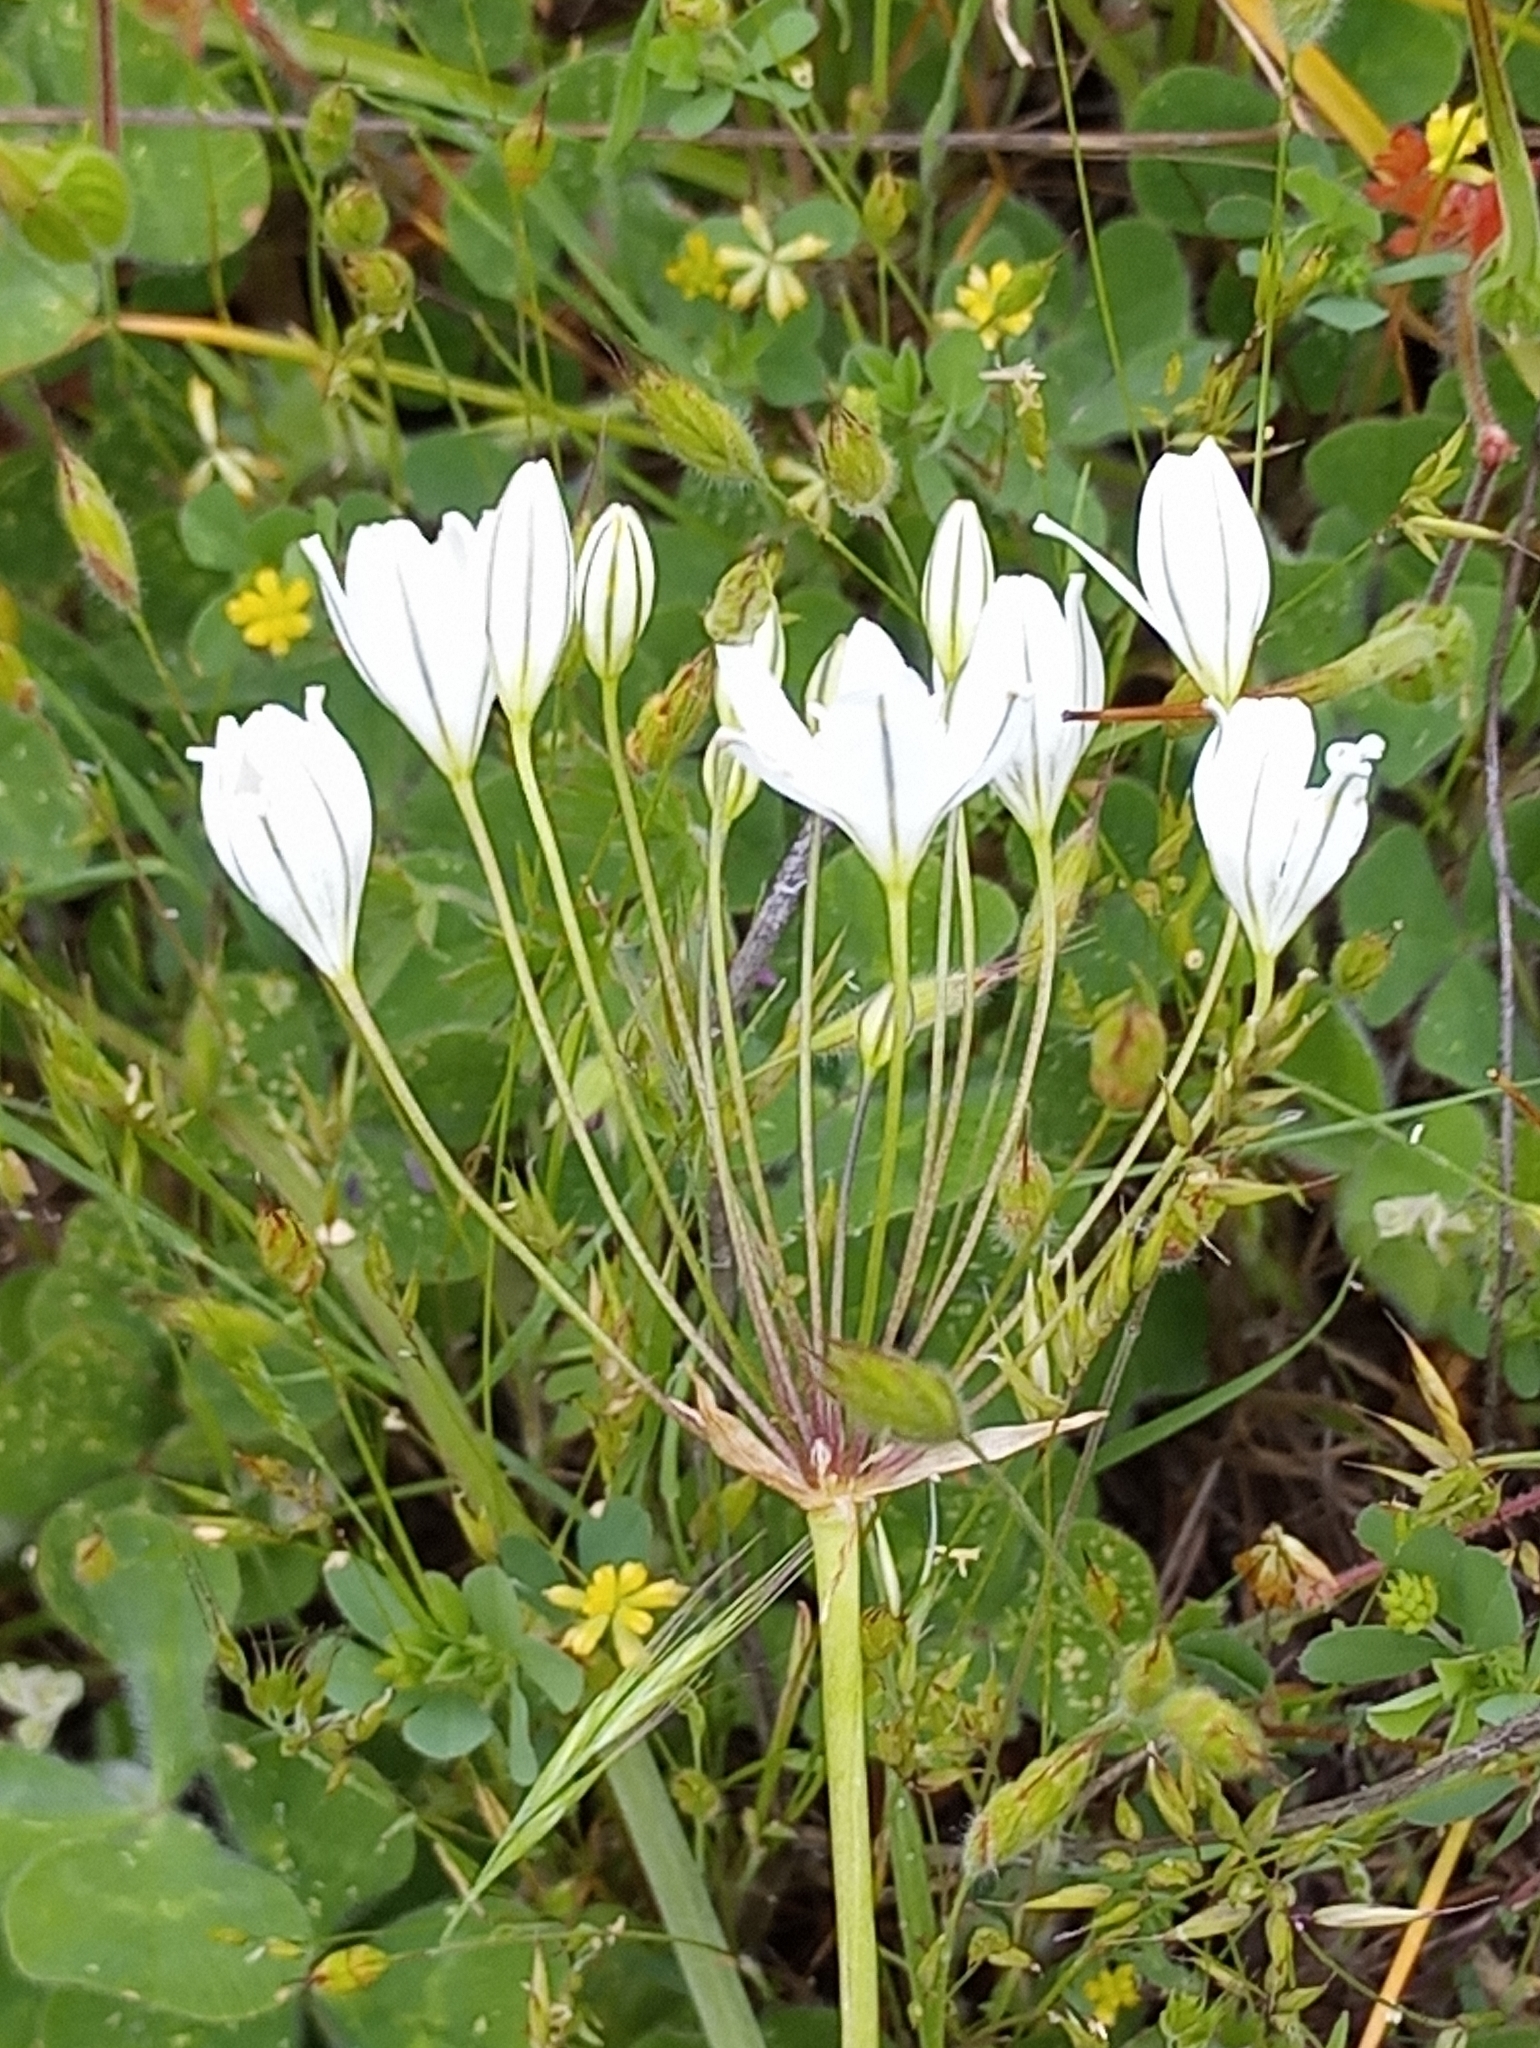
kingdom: Plantae
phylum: Tracheophyta
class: Liliopsida
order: Asparagales
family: Asparagaceae
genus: Triteleia
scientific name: Triteleia hyacinthina
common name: White brodiaea
